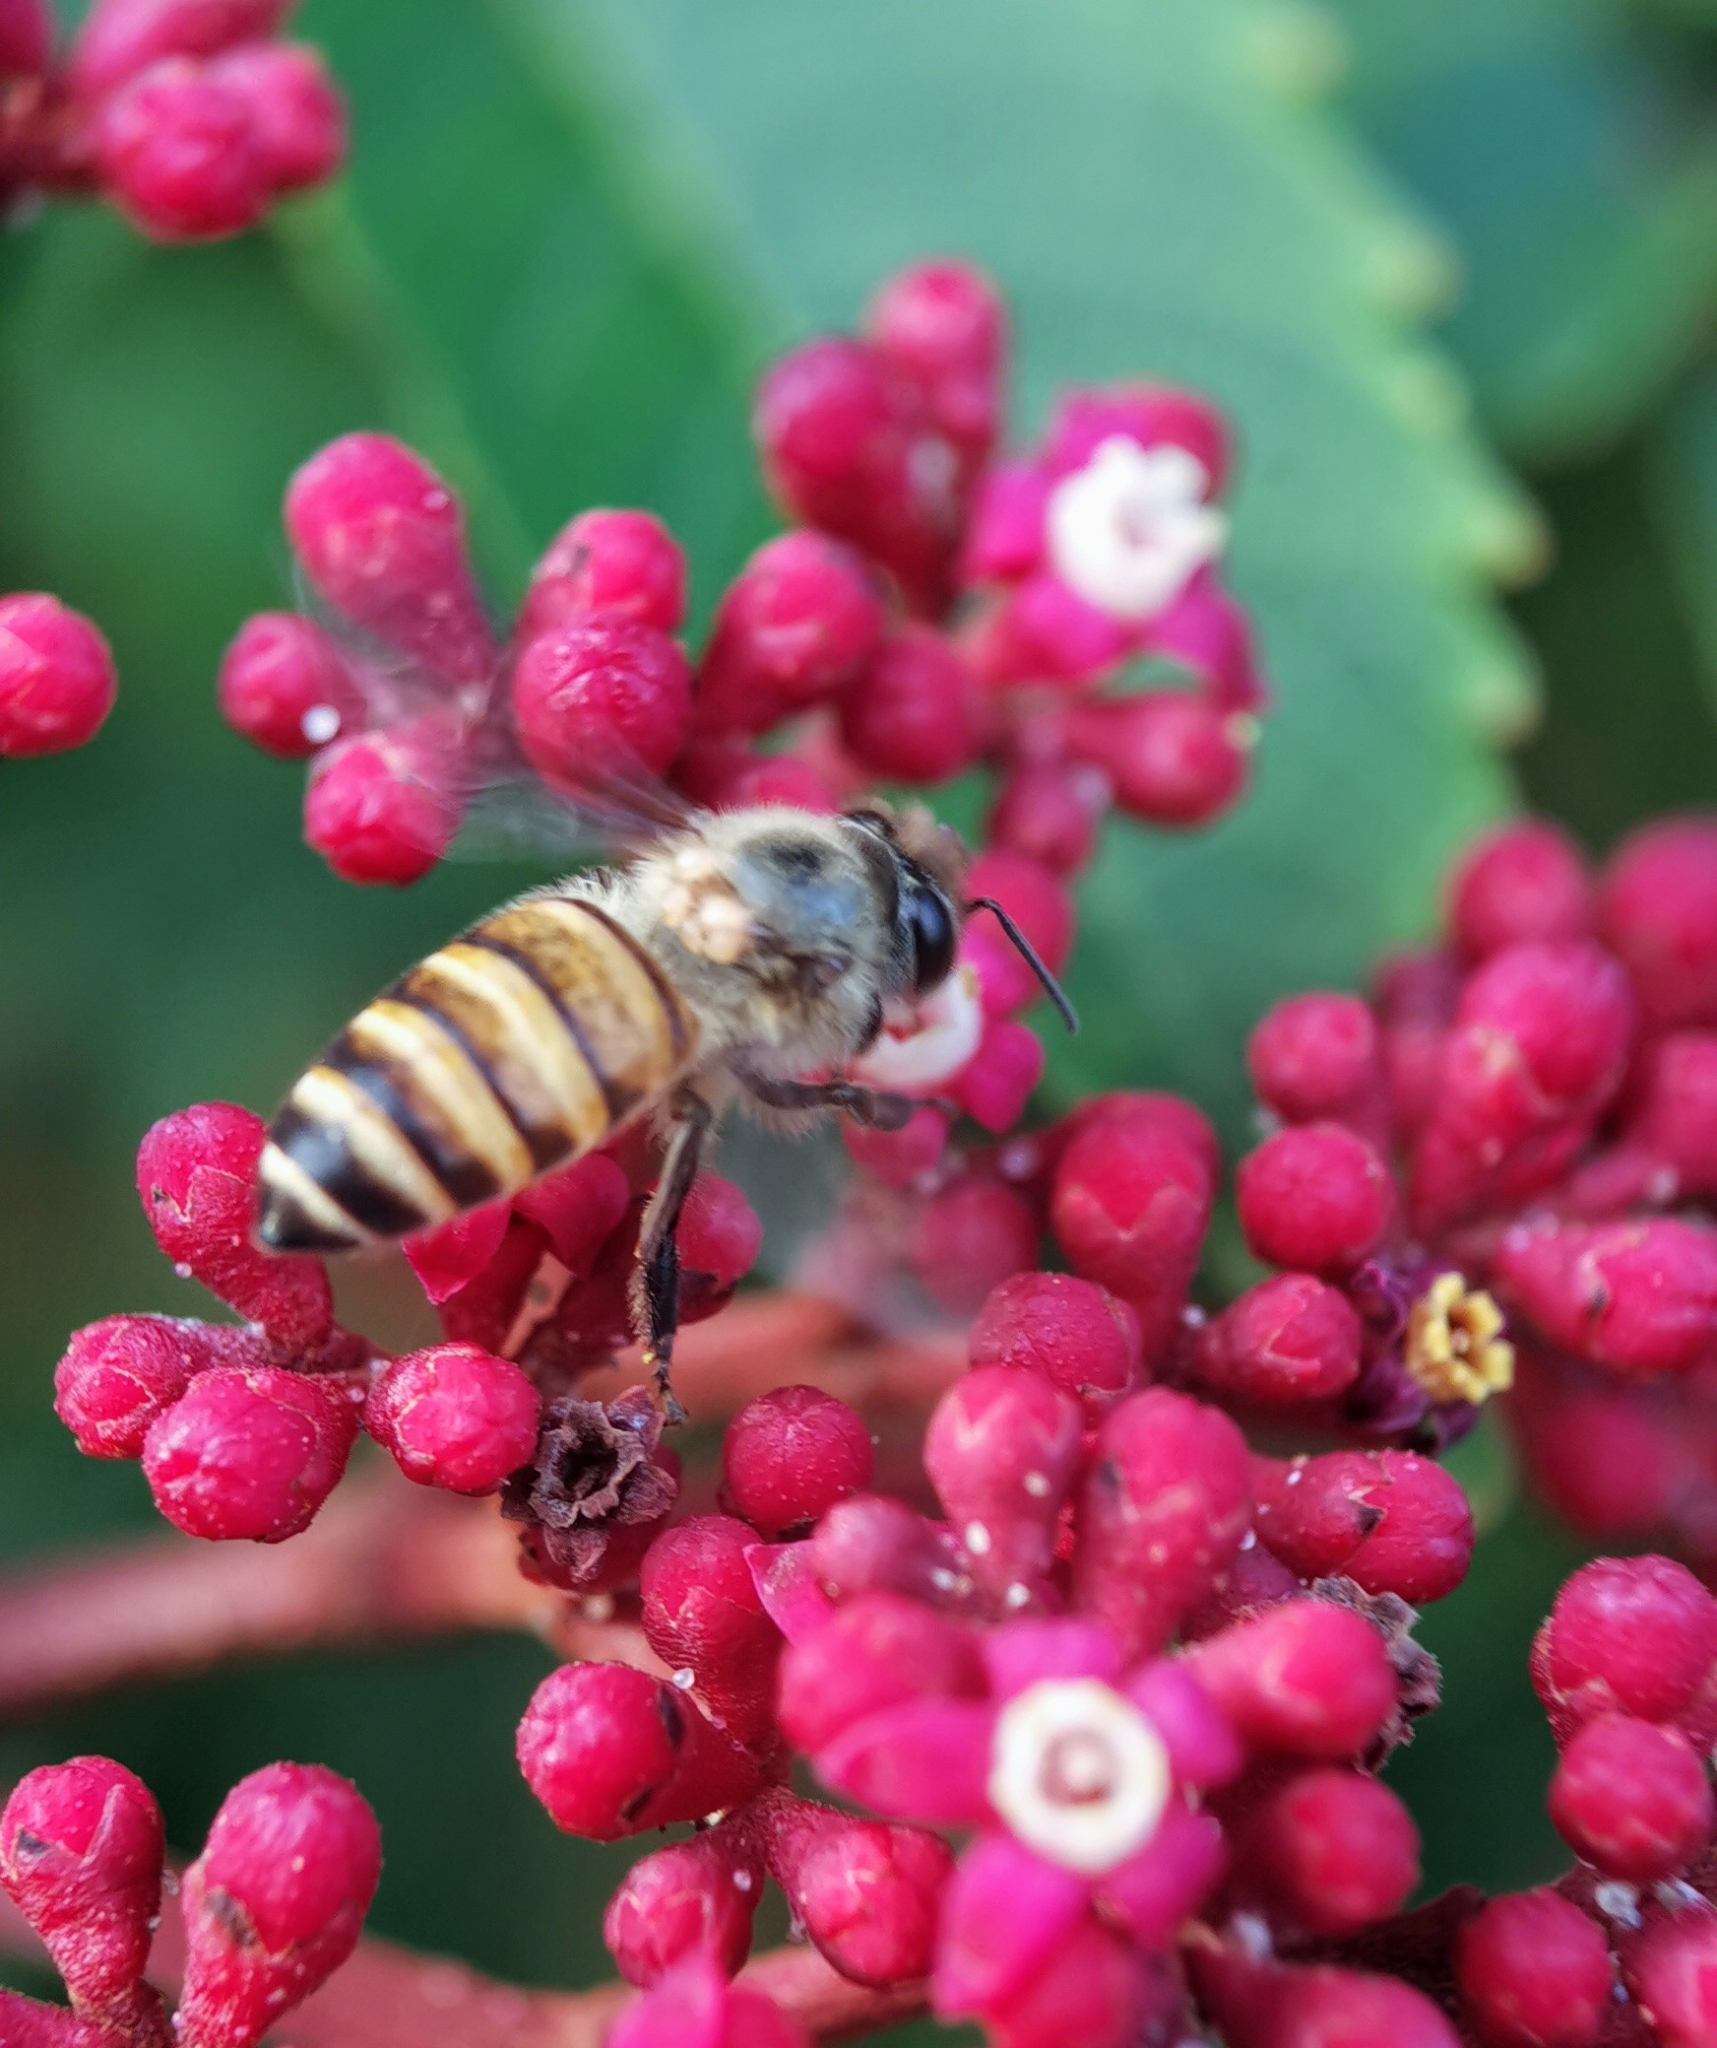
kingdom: Animalia
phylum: Arthropoda
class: Insecta
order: Hymenoptera
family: Apidae
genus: Apis
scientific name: Apis cerana
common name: Honey bee
